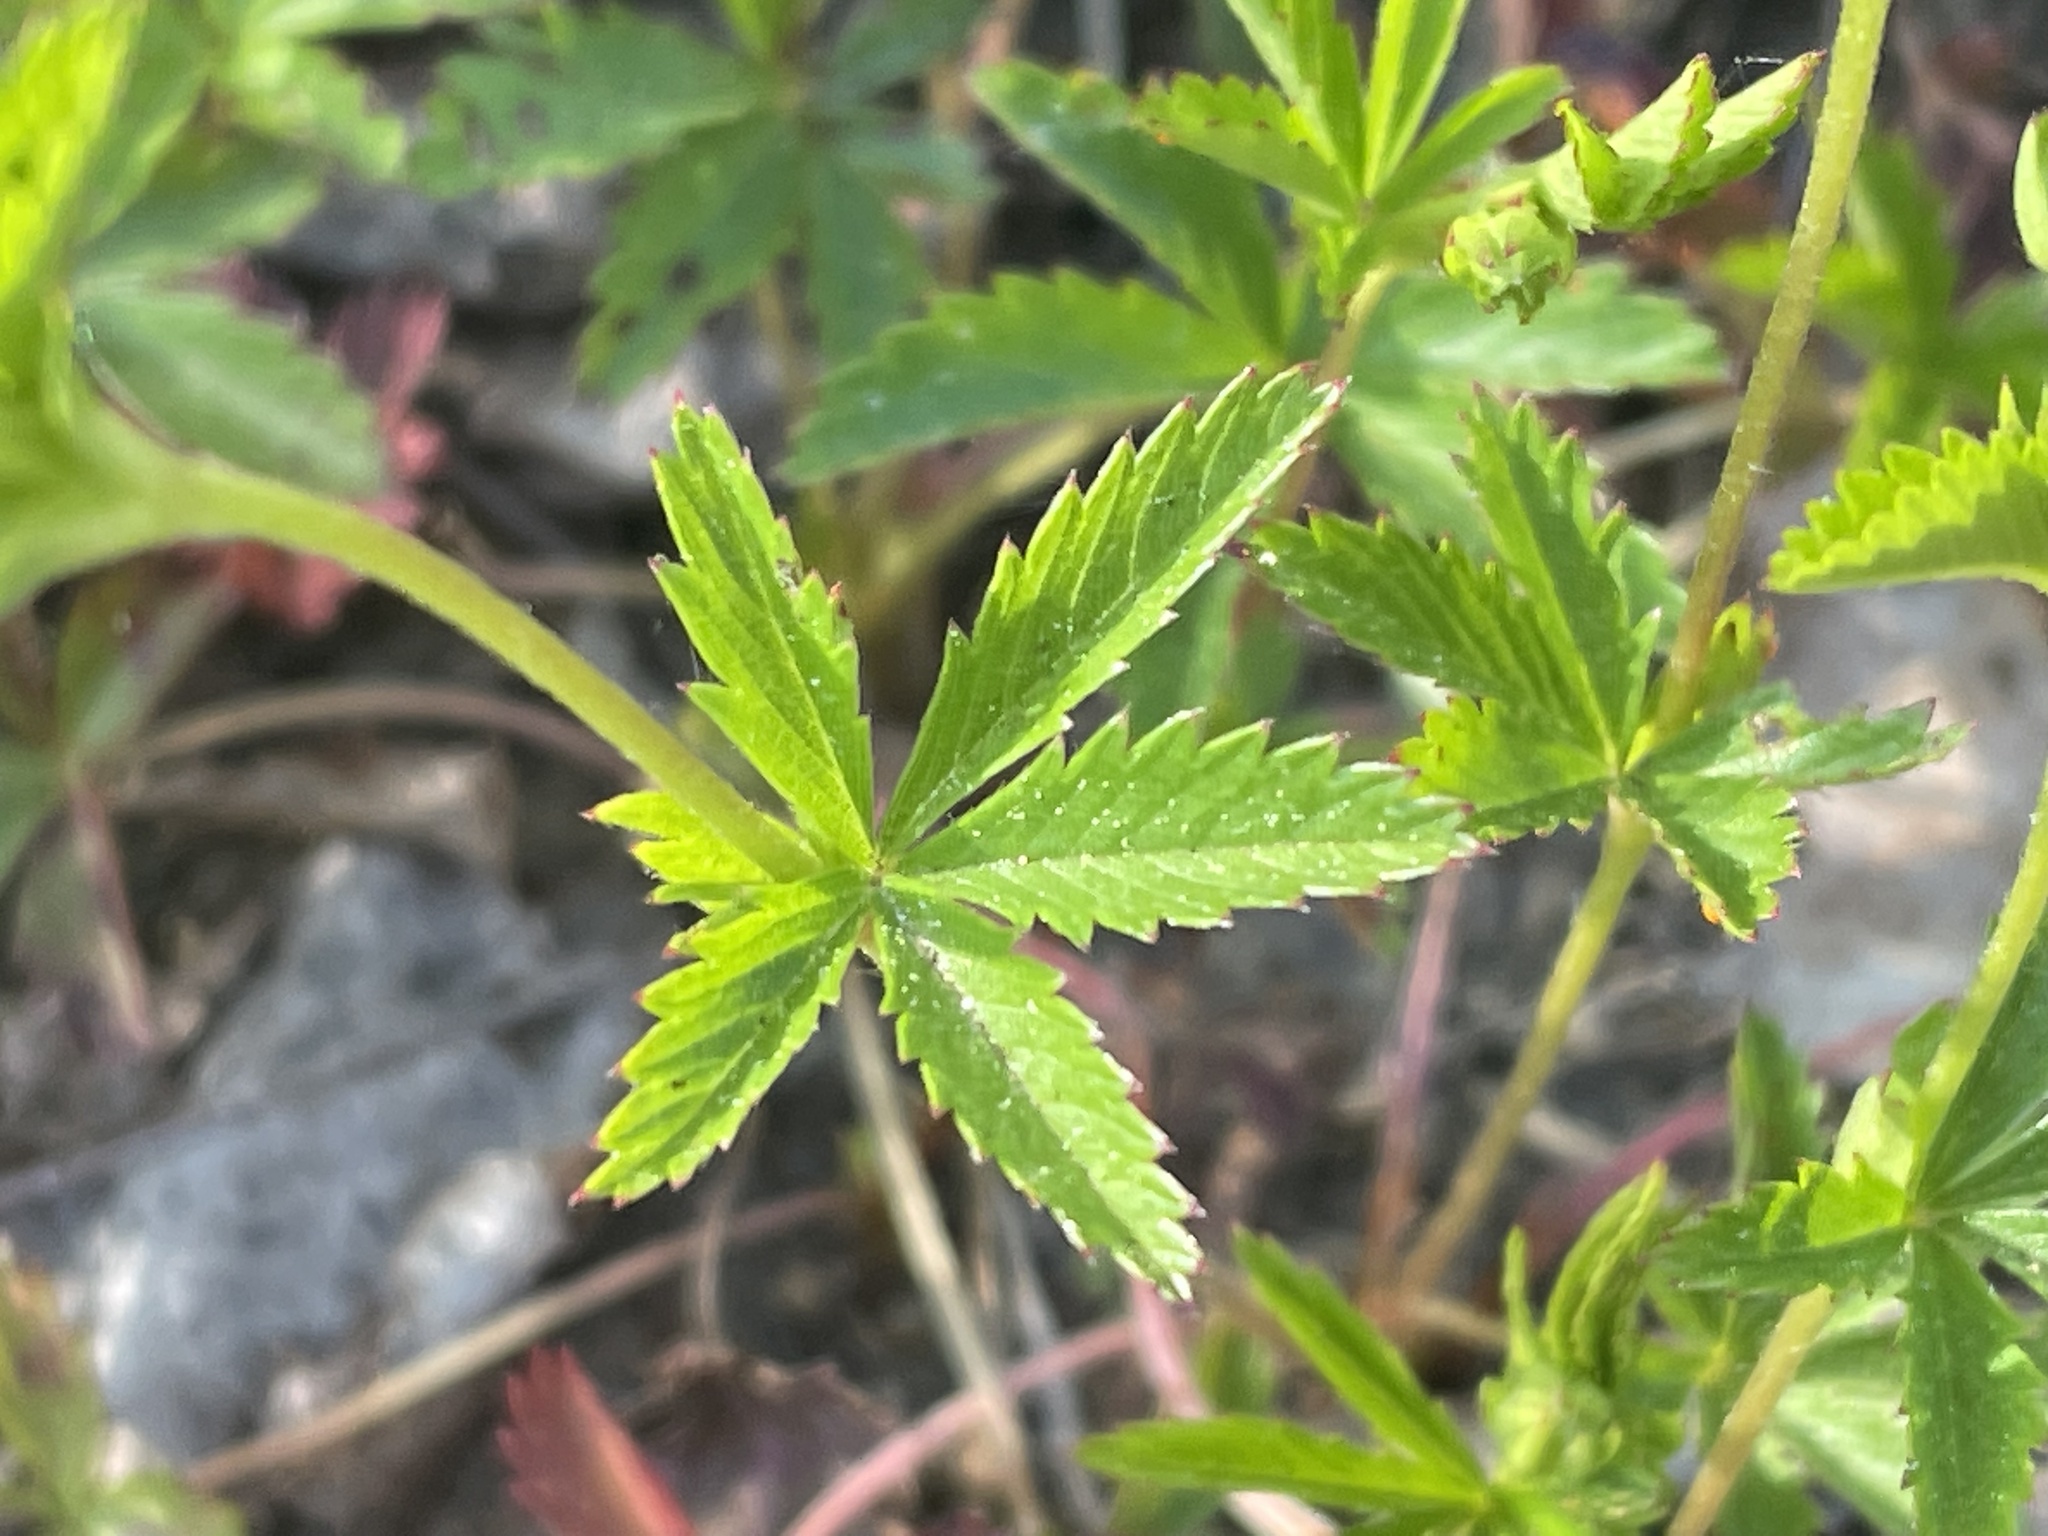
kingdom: Plantae
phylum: Tracheophyta
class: Magnoliopsida
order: Rosales
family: Rosaceae
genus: Potentilla
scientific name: Potentilla simplex
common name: Old field cinquefoil
